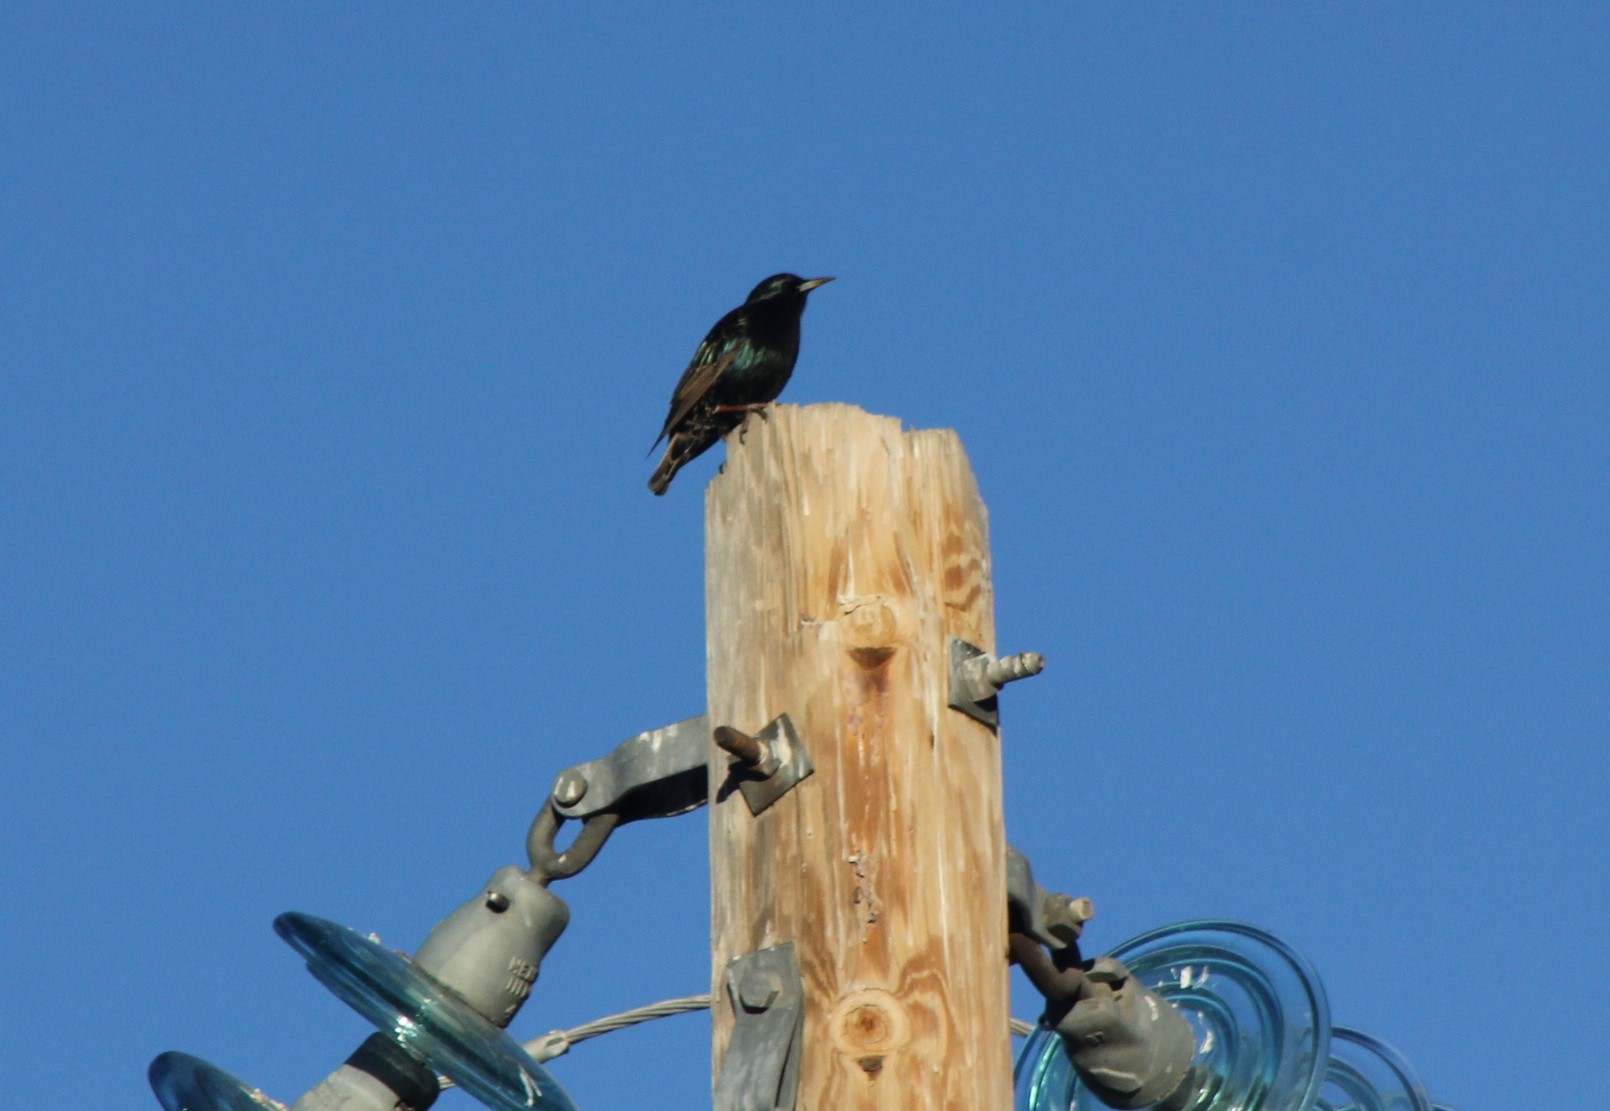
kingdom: Animalia
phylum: Chordata
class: Aves
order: Passeriformes
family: Sturnidae
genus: Sturnus
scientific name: Sturnus vulgaris
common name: Common starling
